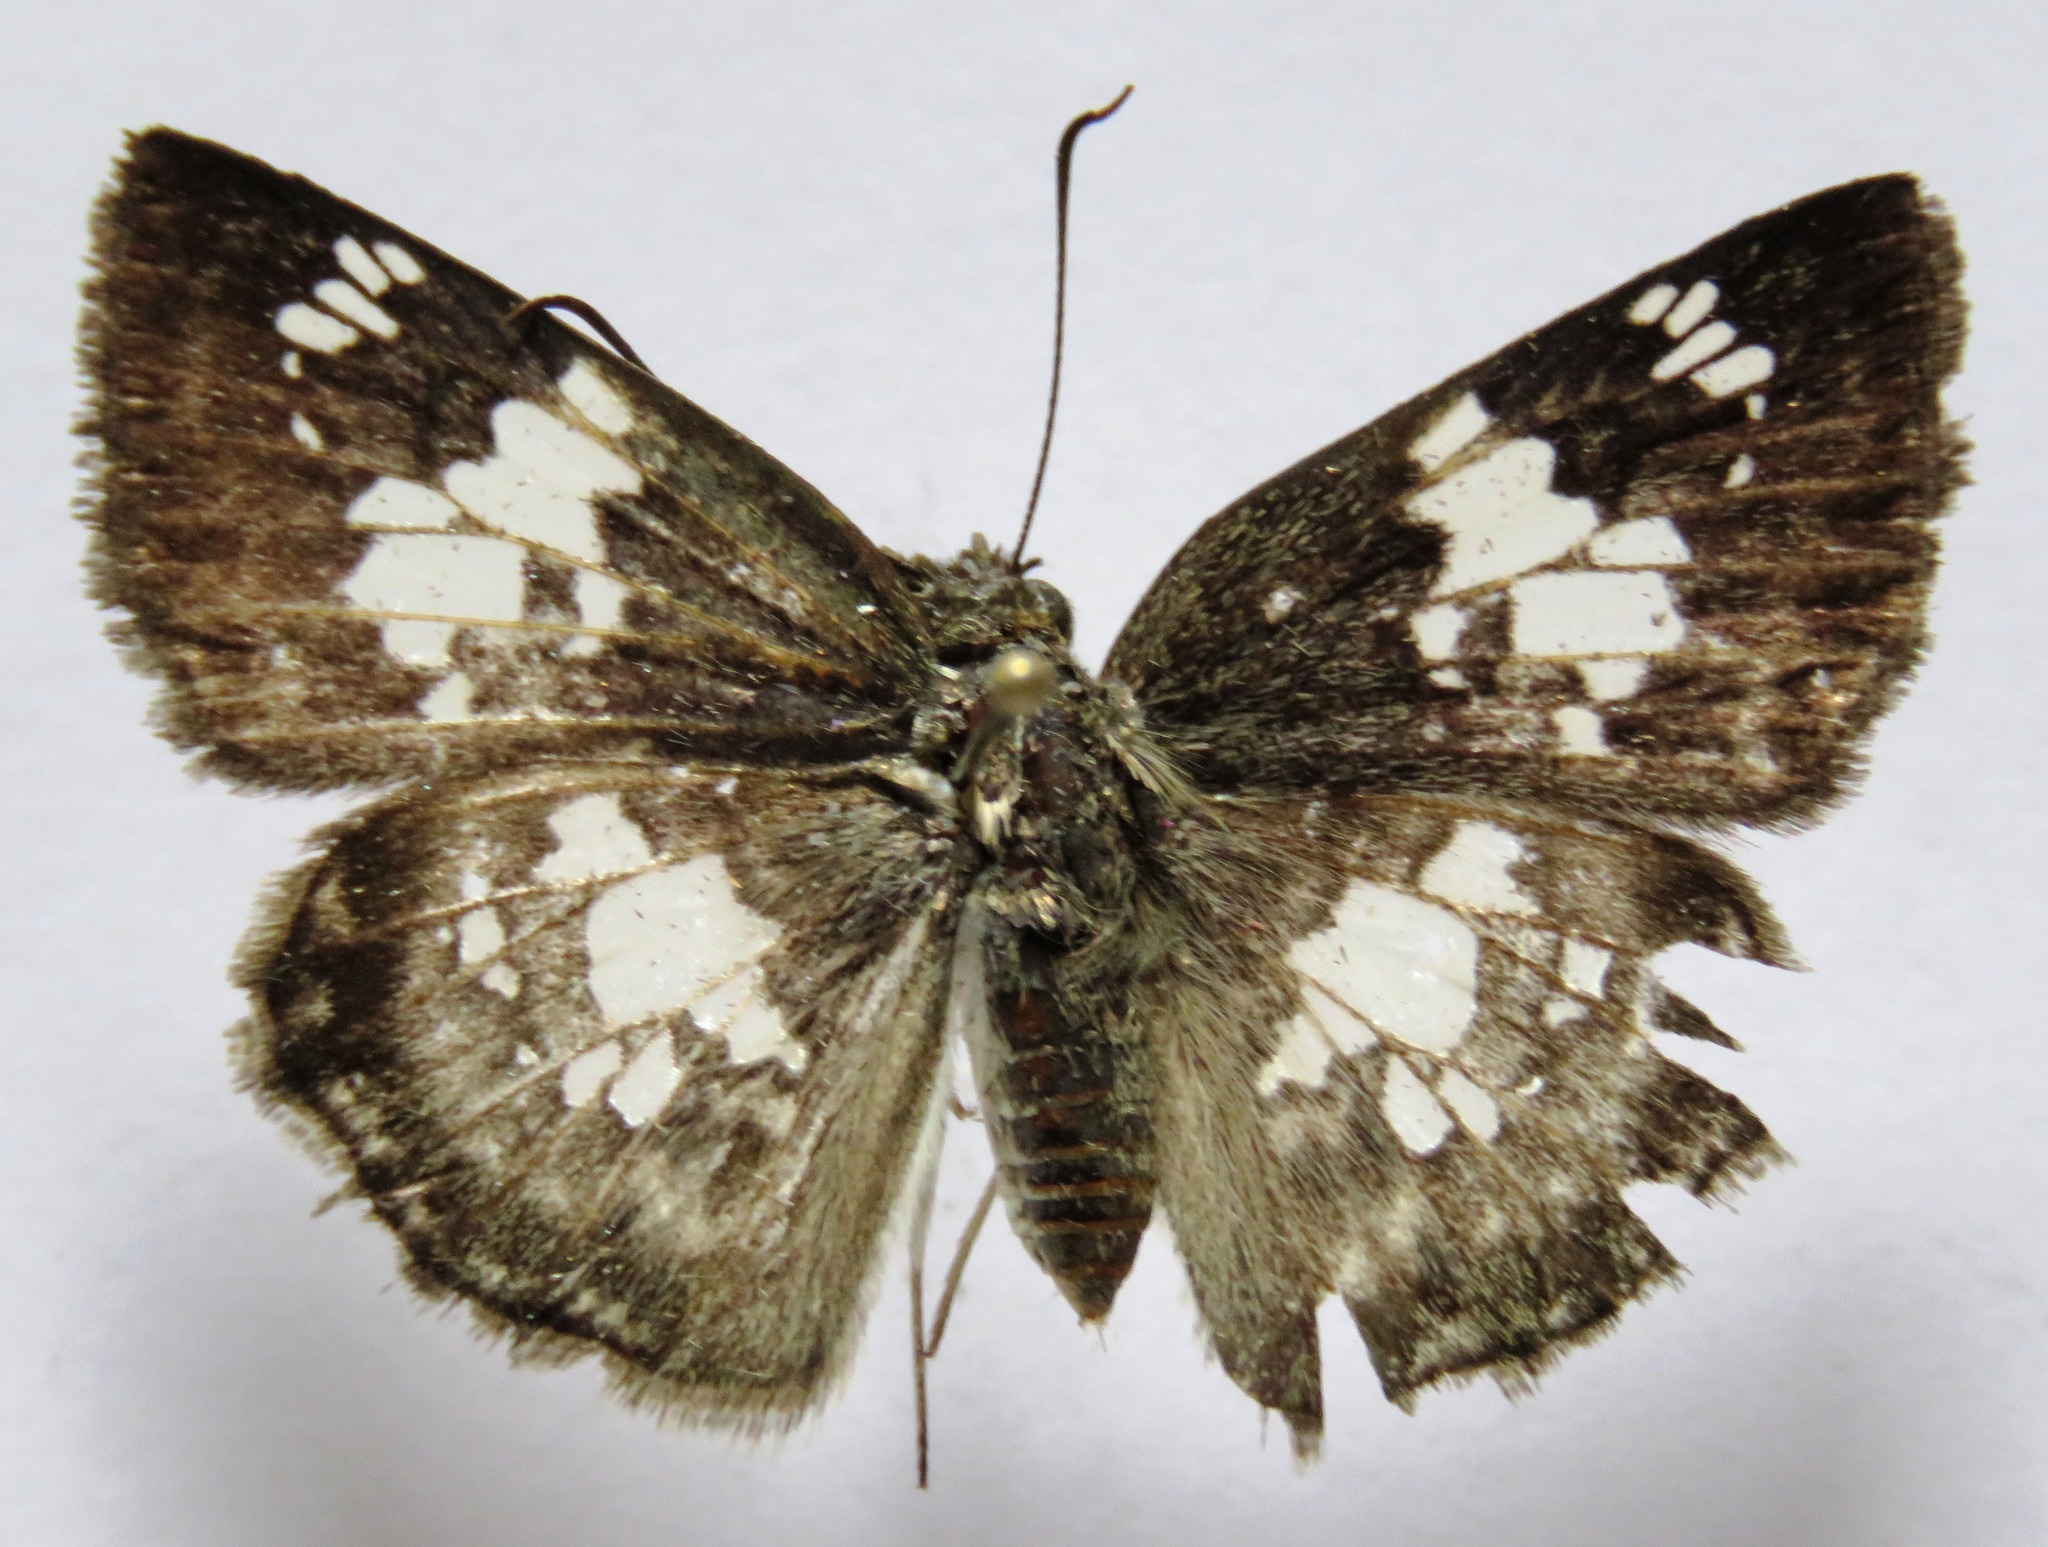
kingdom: Animalia
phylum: Arthropoda
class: Insecta
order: Lepidoptera
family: Hesperiidae
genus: Xenophanes
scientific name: Xenophanes tryxus
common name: Glassy-winged skipper
